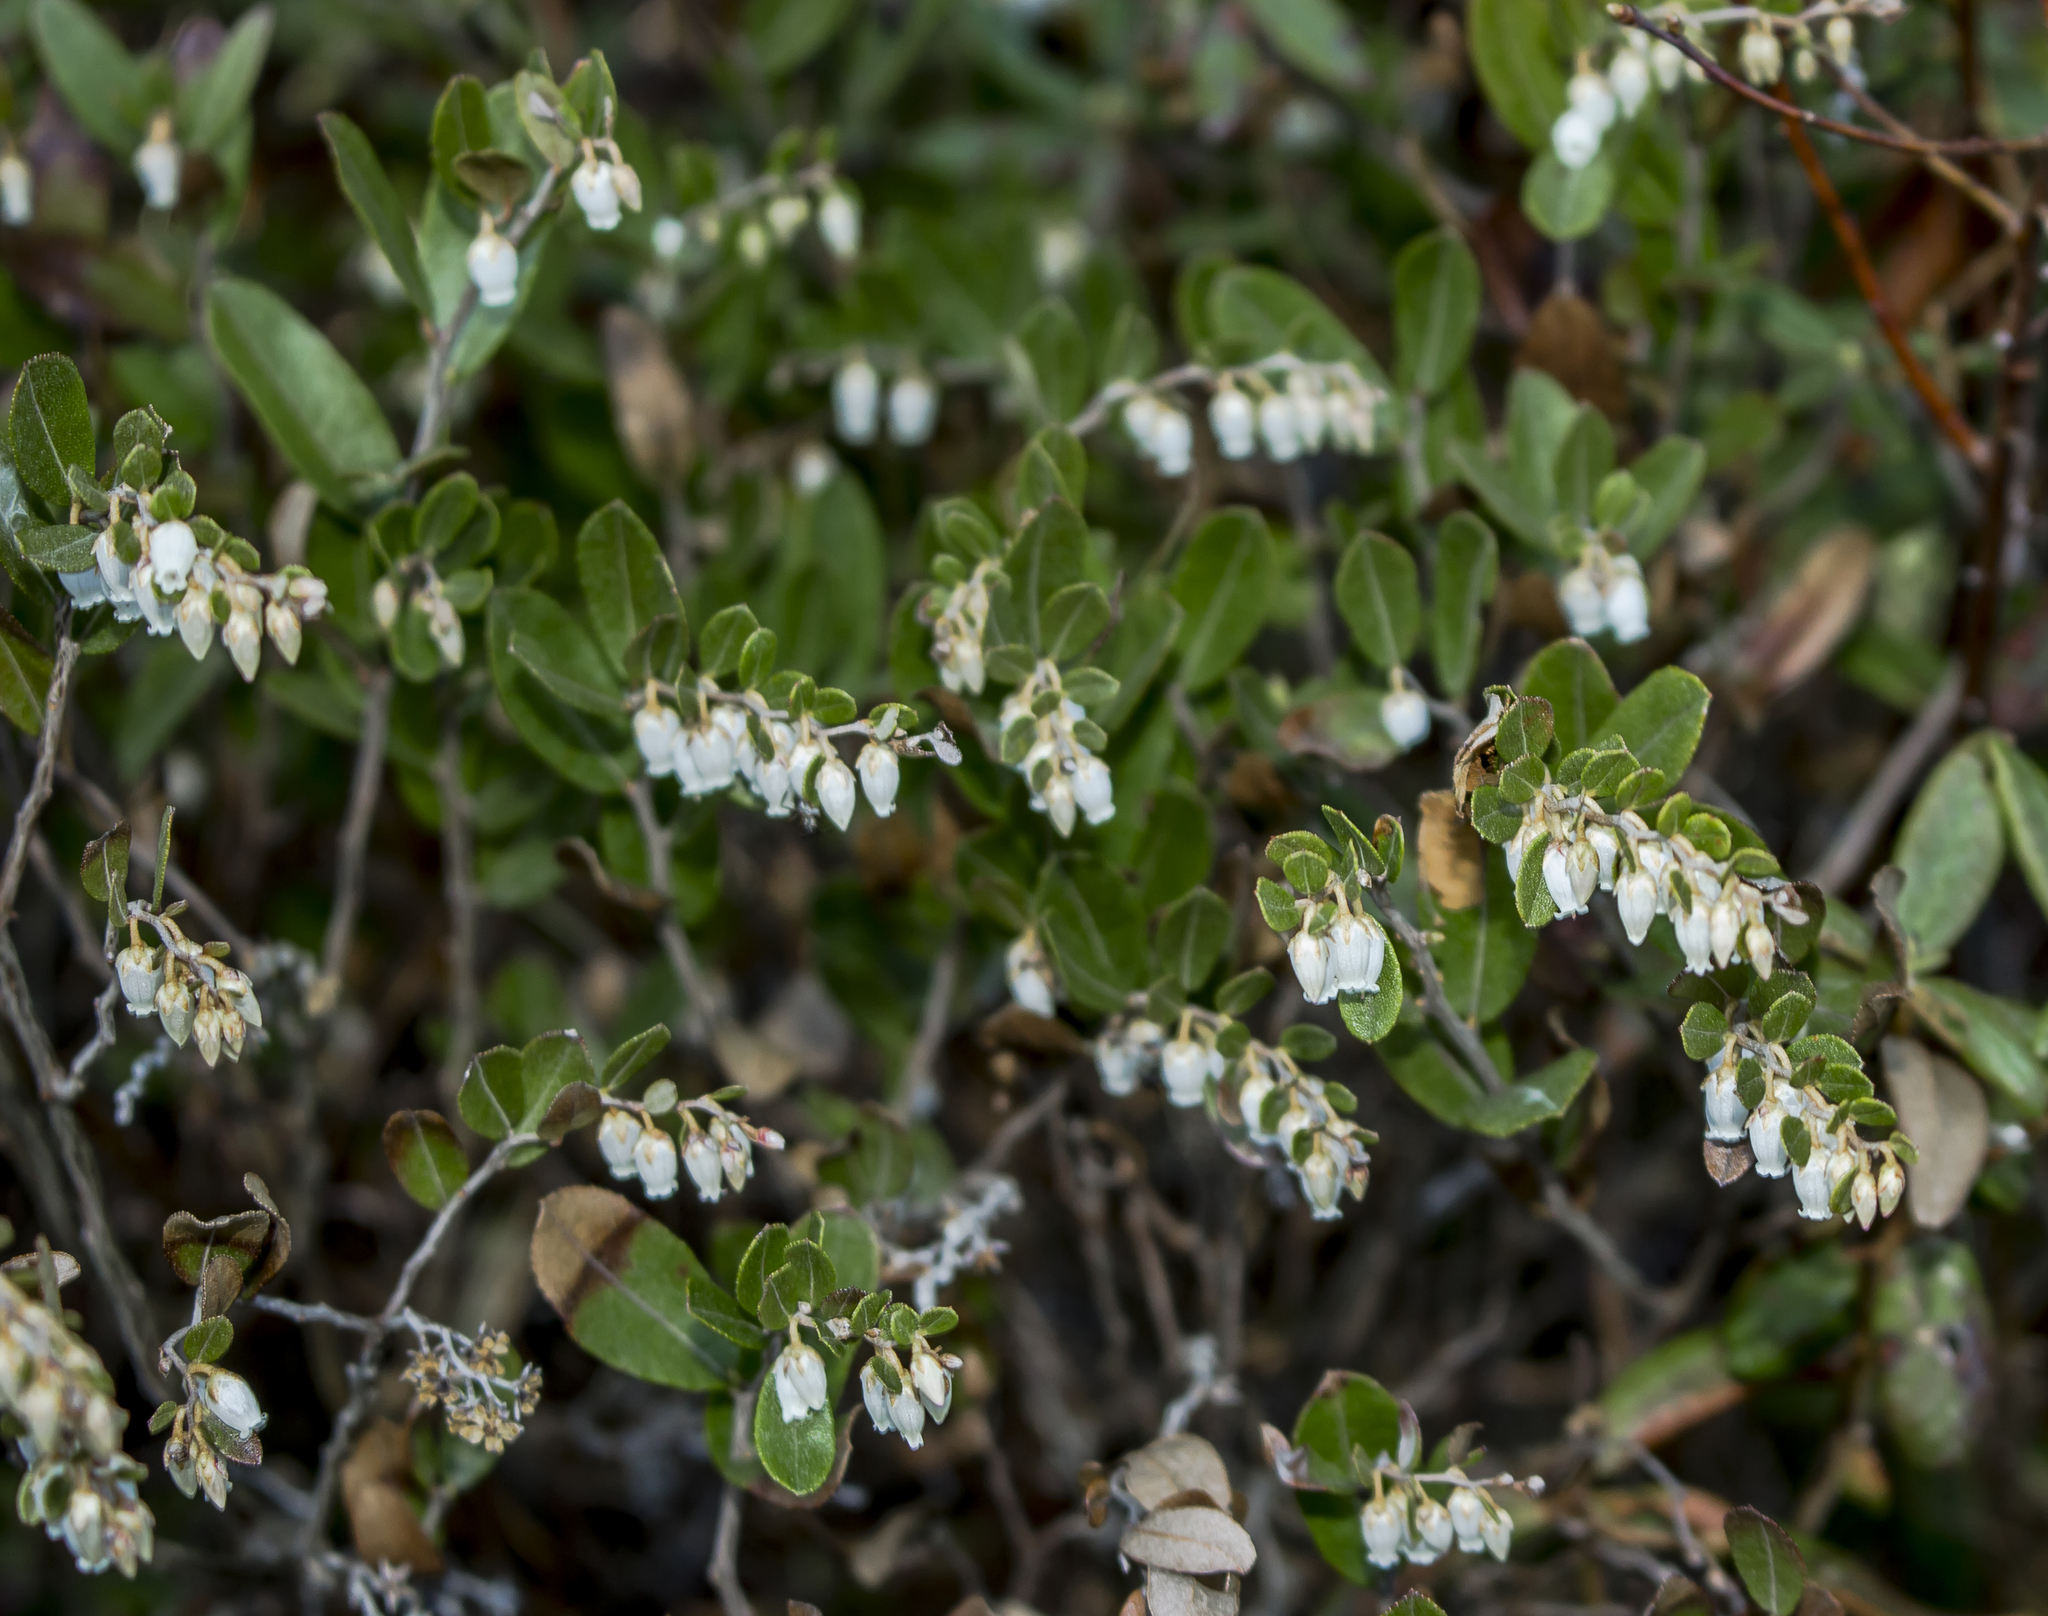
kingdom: Plantae
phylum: Tracheophyta
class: Magnoliopsida
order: Ericales
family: Ericaceae
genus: Chamaedaphne
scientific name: Chamaedaphne calyculata
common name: Leatherleaf
